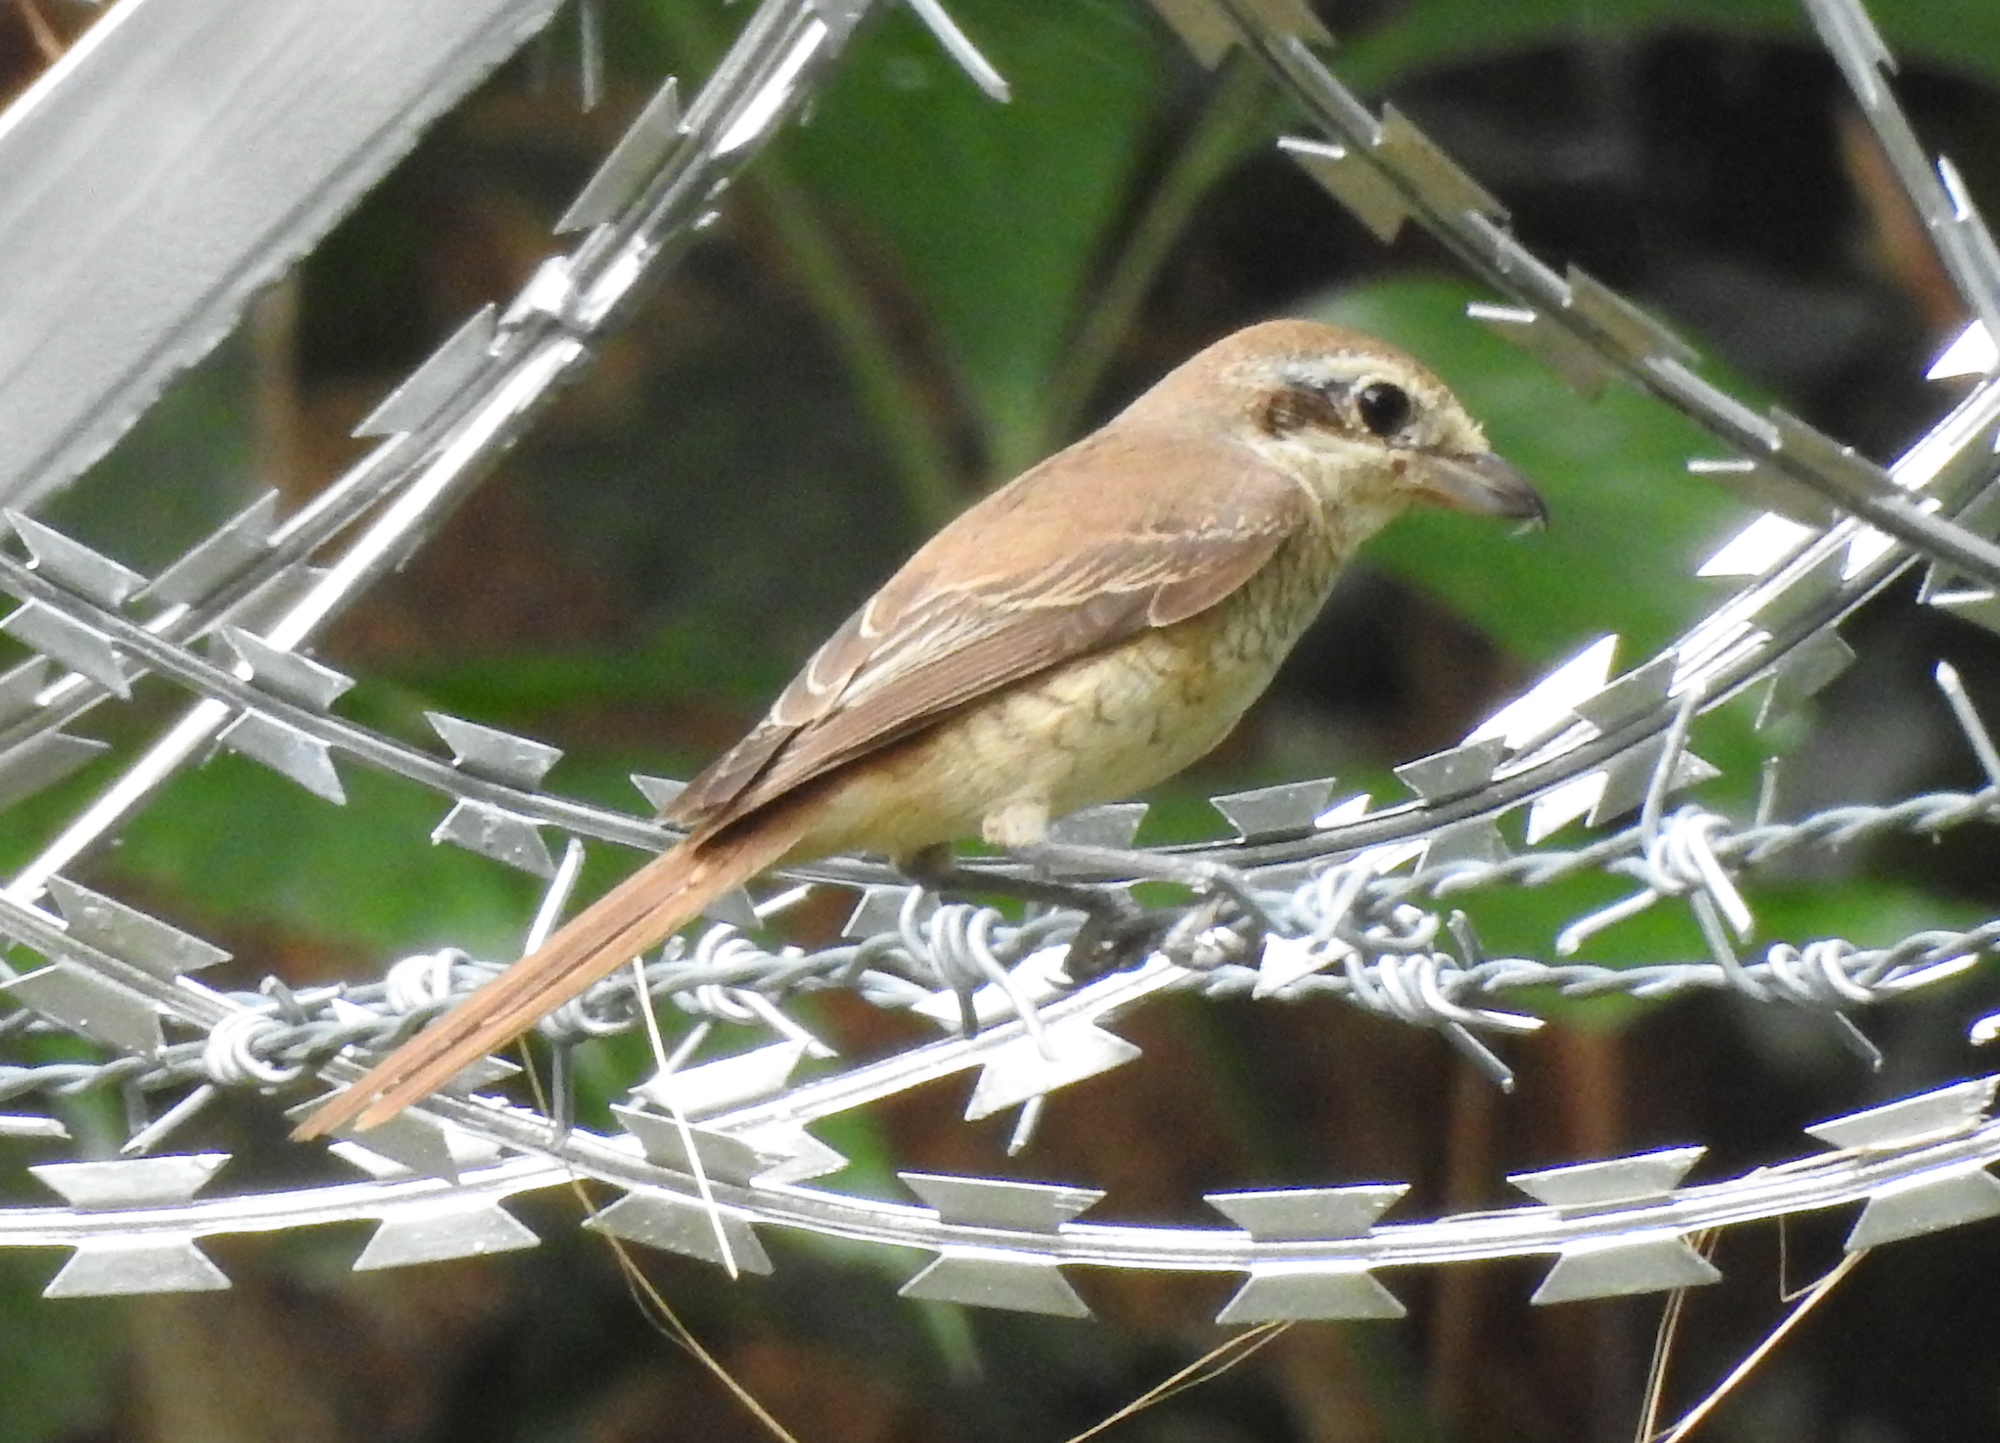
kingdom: Animalia
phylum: Chordata
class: Aves
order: Passeriformes
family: Laniidae
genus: Lanius
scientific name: Lanius cristatus
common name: Brown shrike
